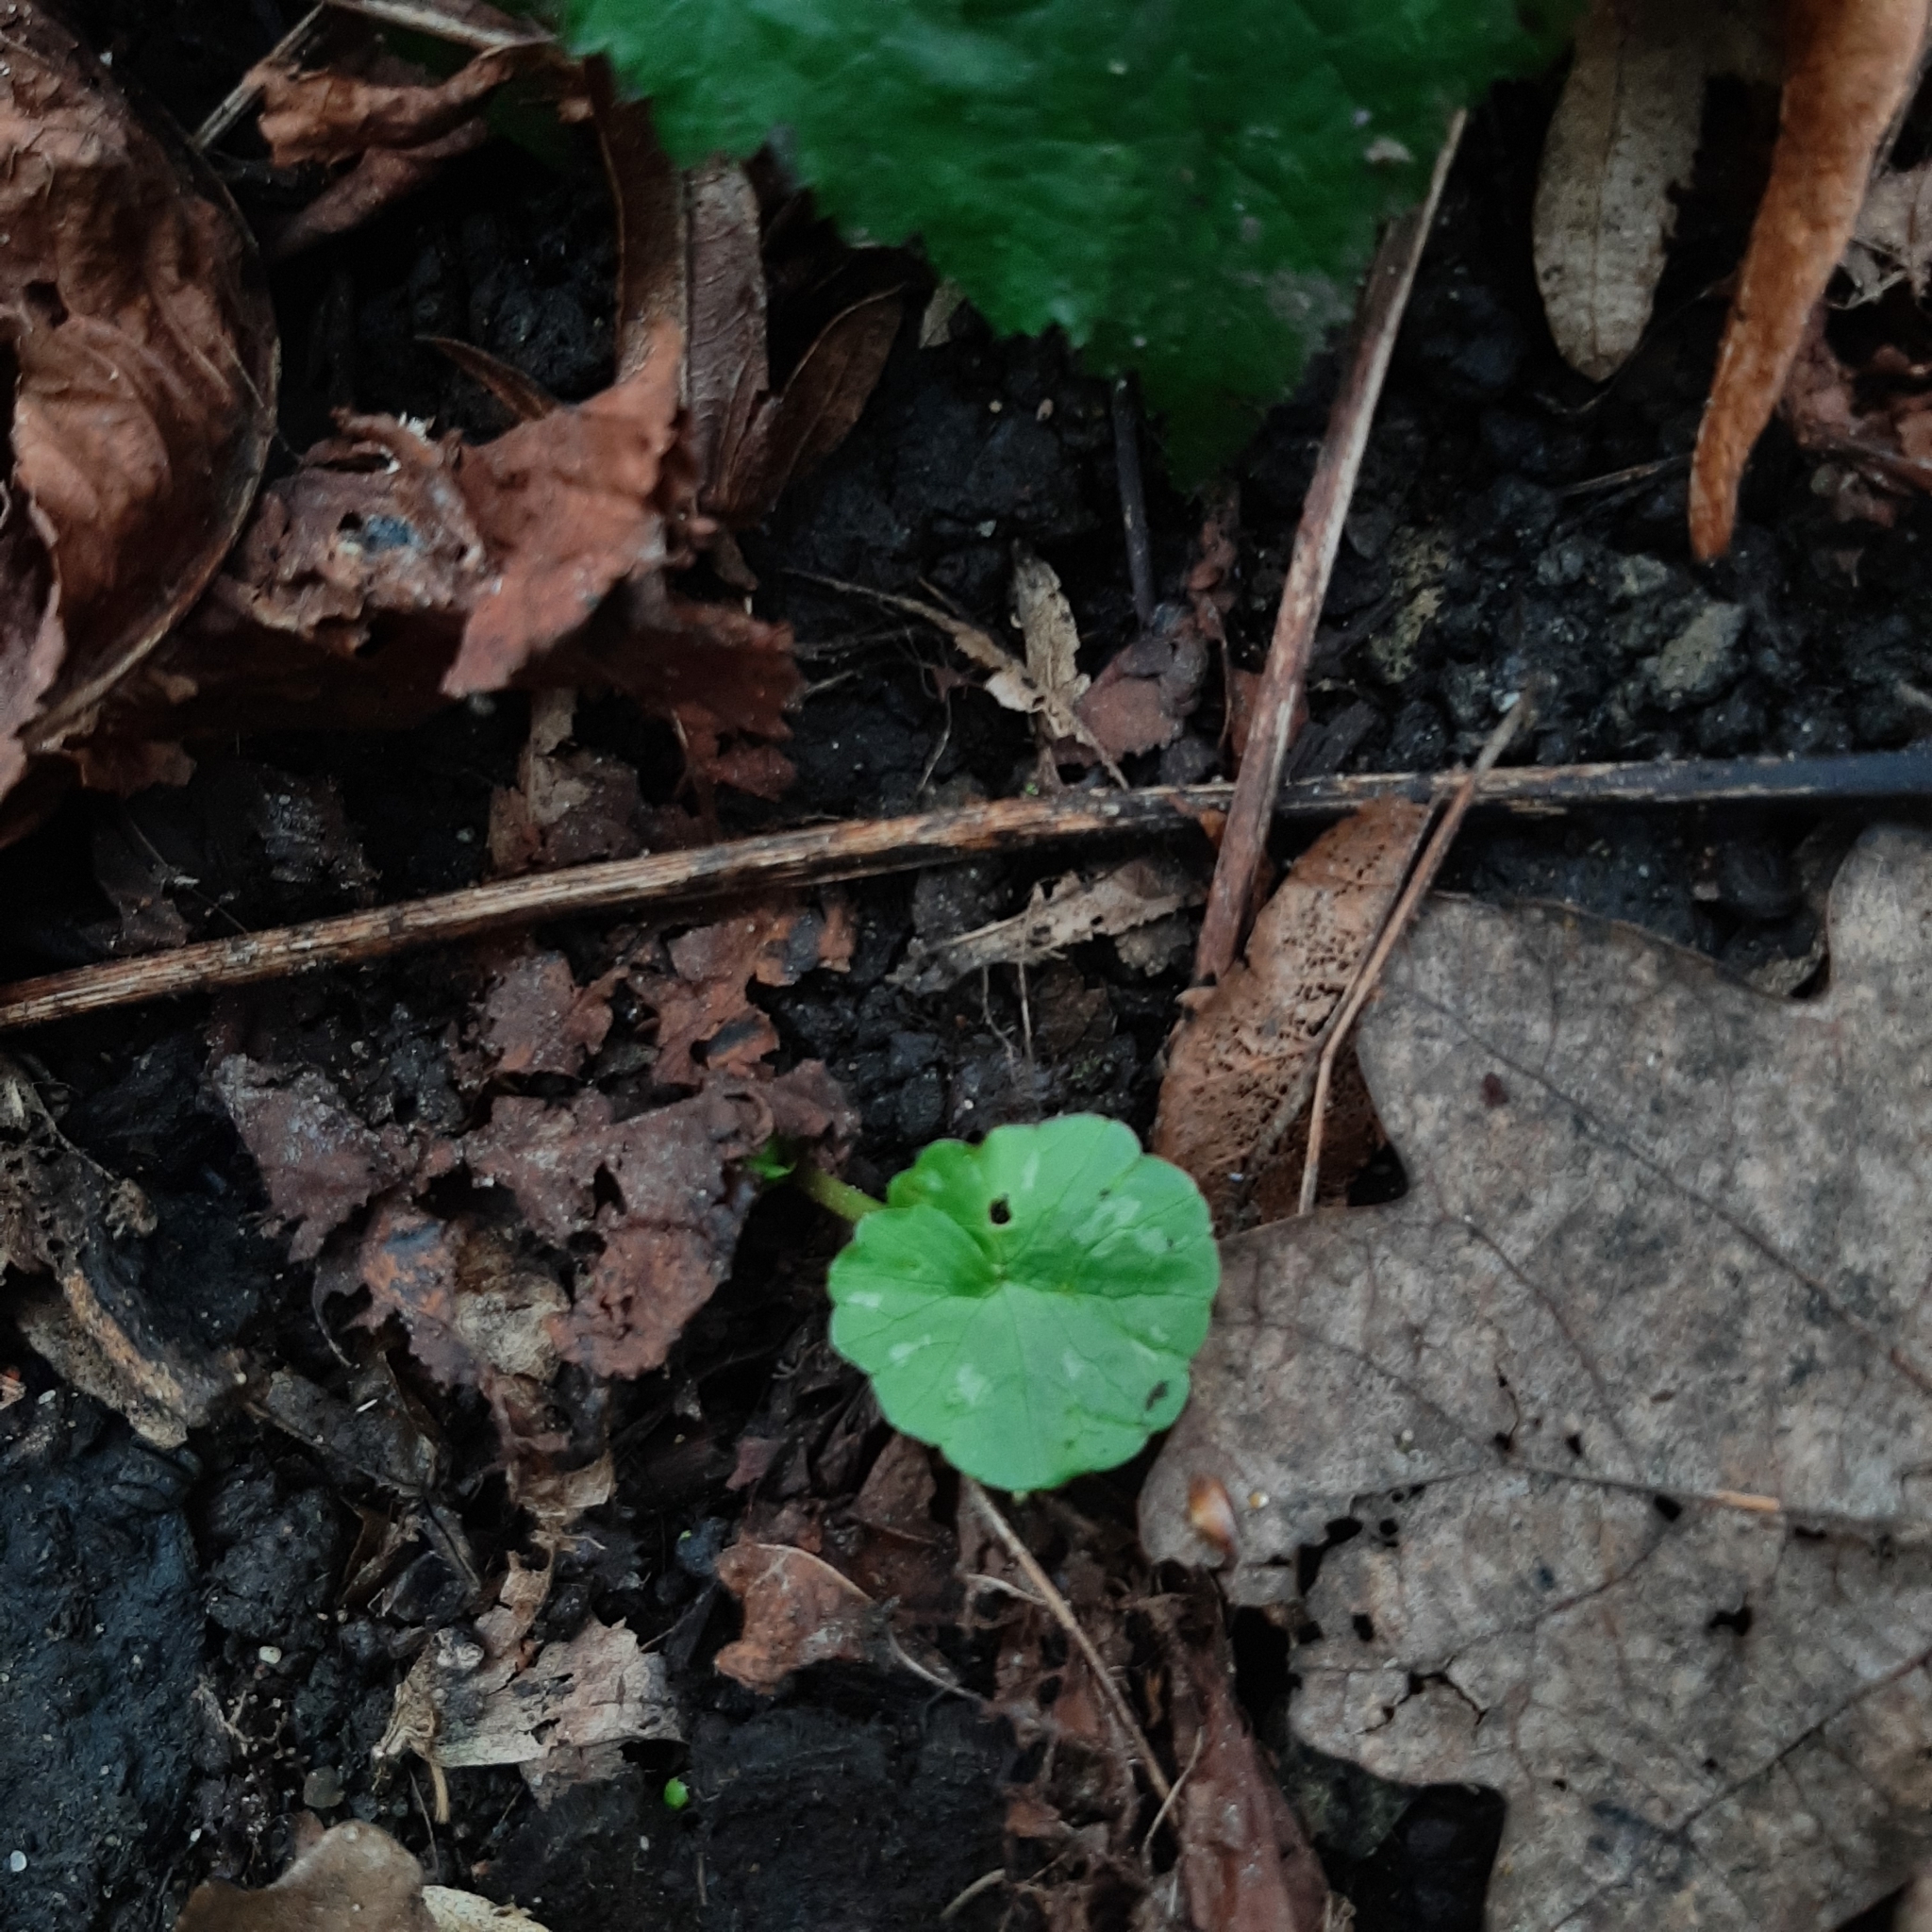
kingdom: Plantae
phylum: Tracheophyta
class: Magnoliopsida
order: Ranunculales
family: Ranunculaceae
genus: Ficaria
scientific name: Ficaria verna
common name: Lesser celandine
